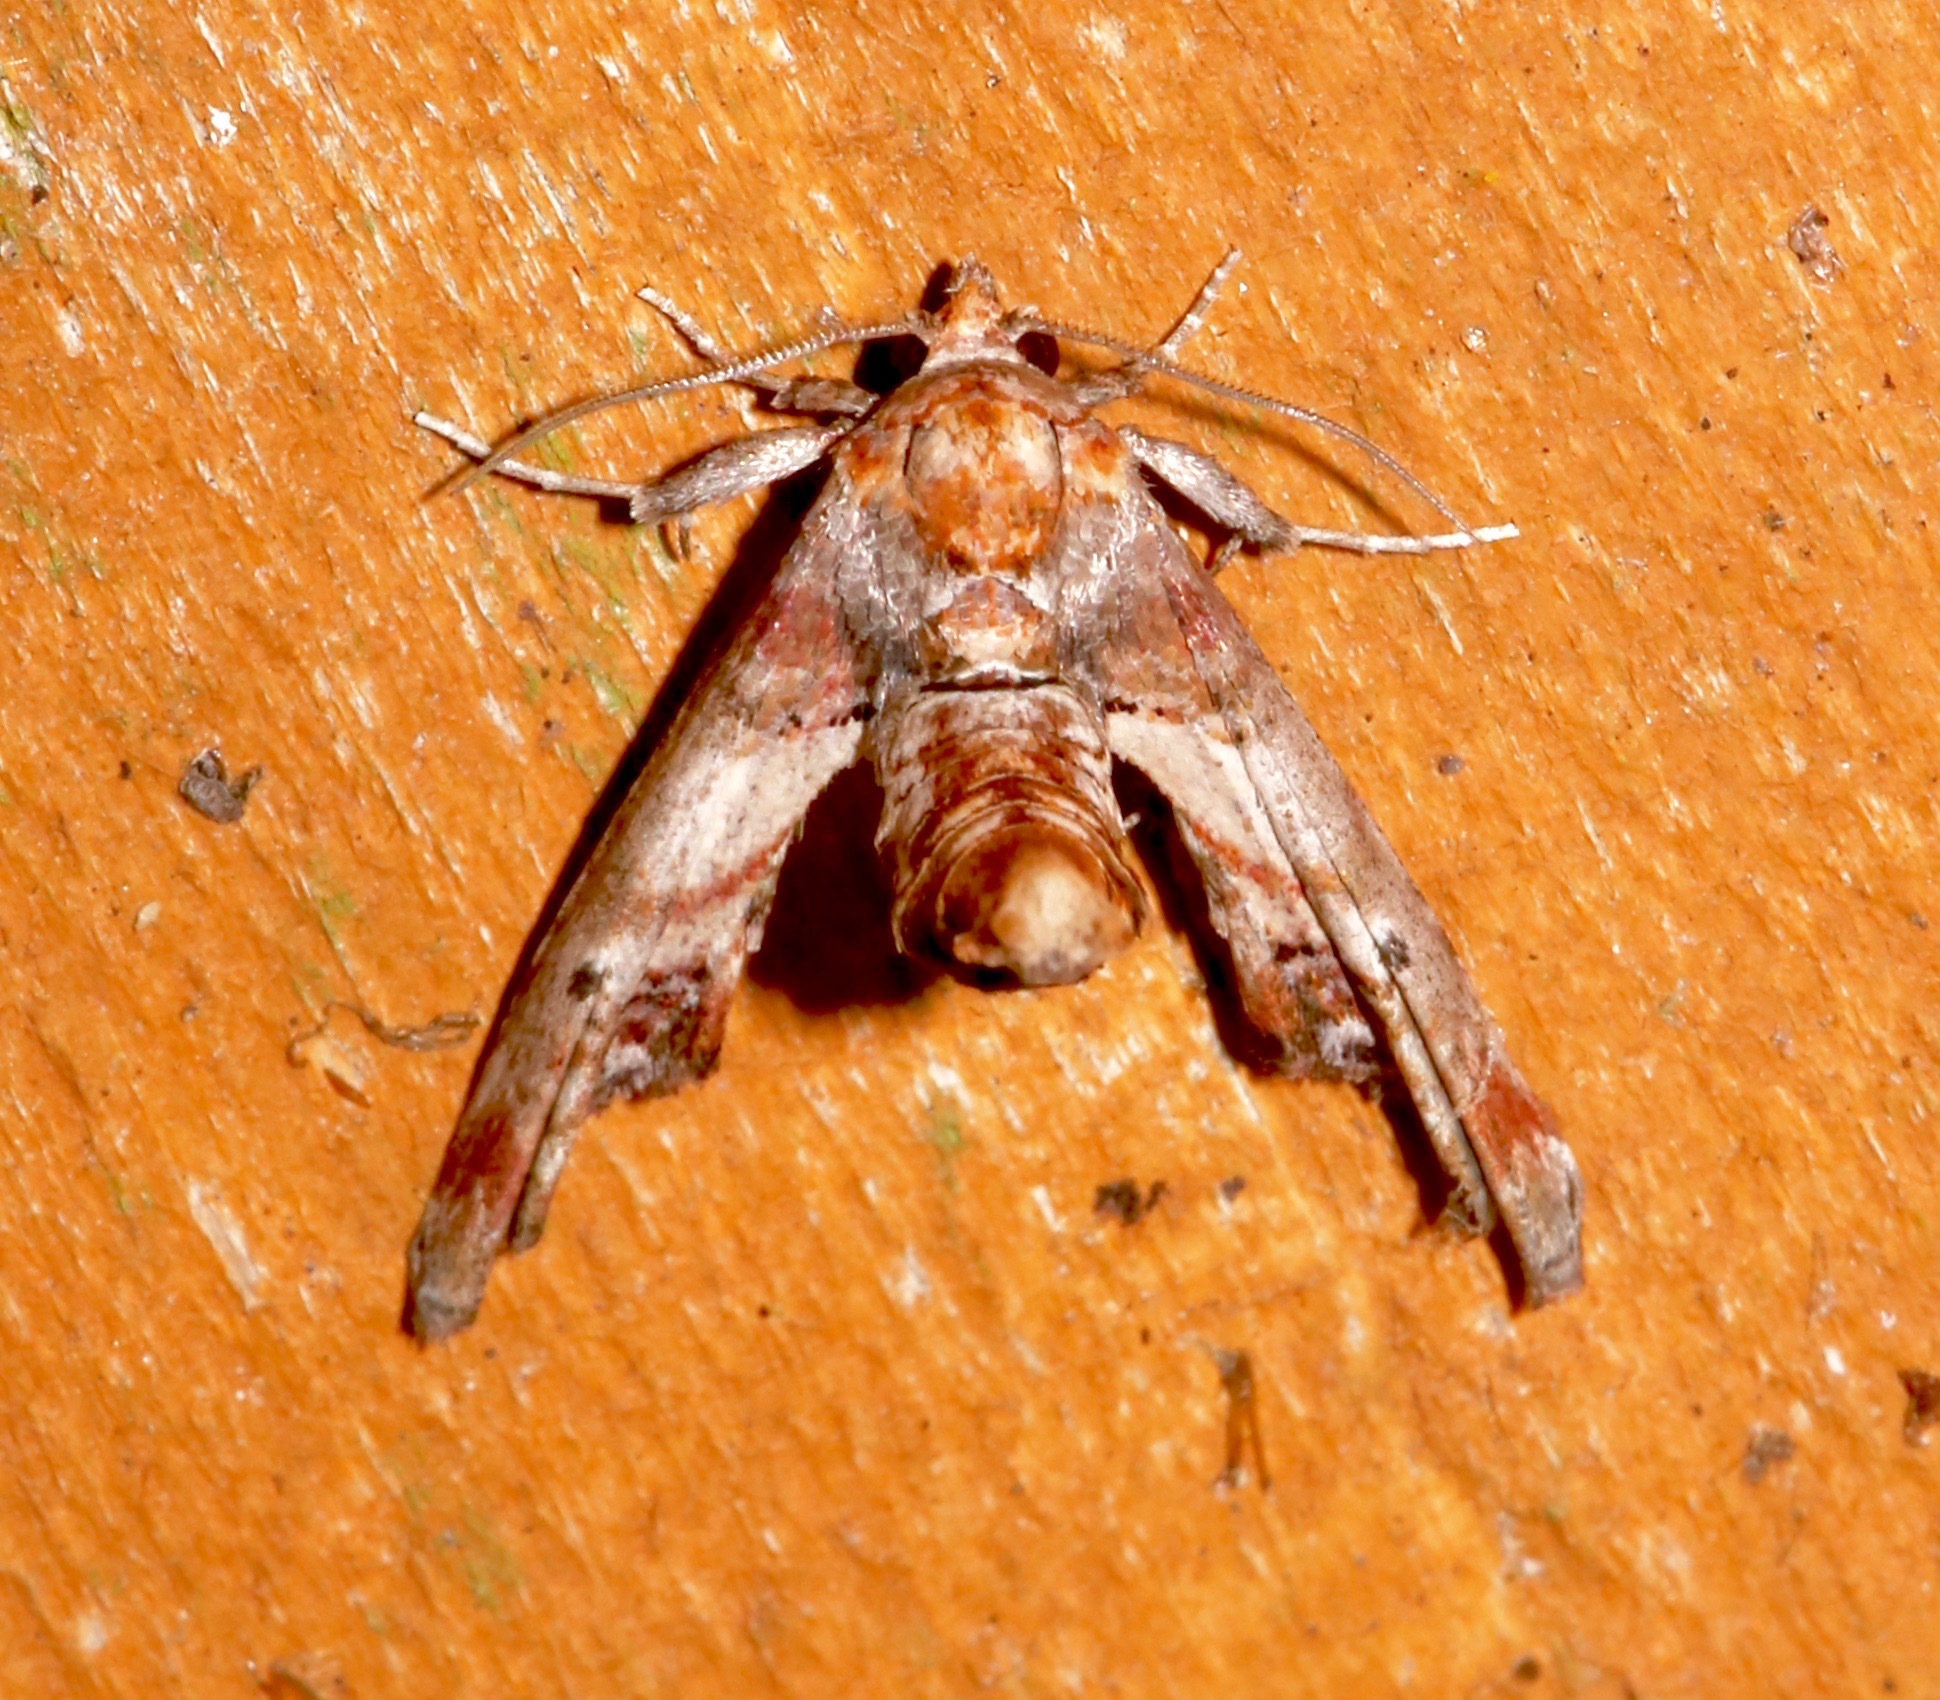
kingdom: Animalia
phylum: Arthropoda
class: Insecta
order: Lepidoptera
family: Euteliidae
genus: Marathyssa
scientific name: Marathyssa inficita
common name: Dark marathyssa moth
